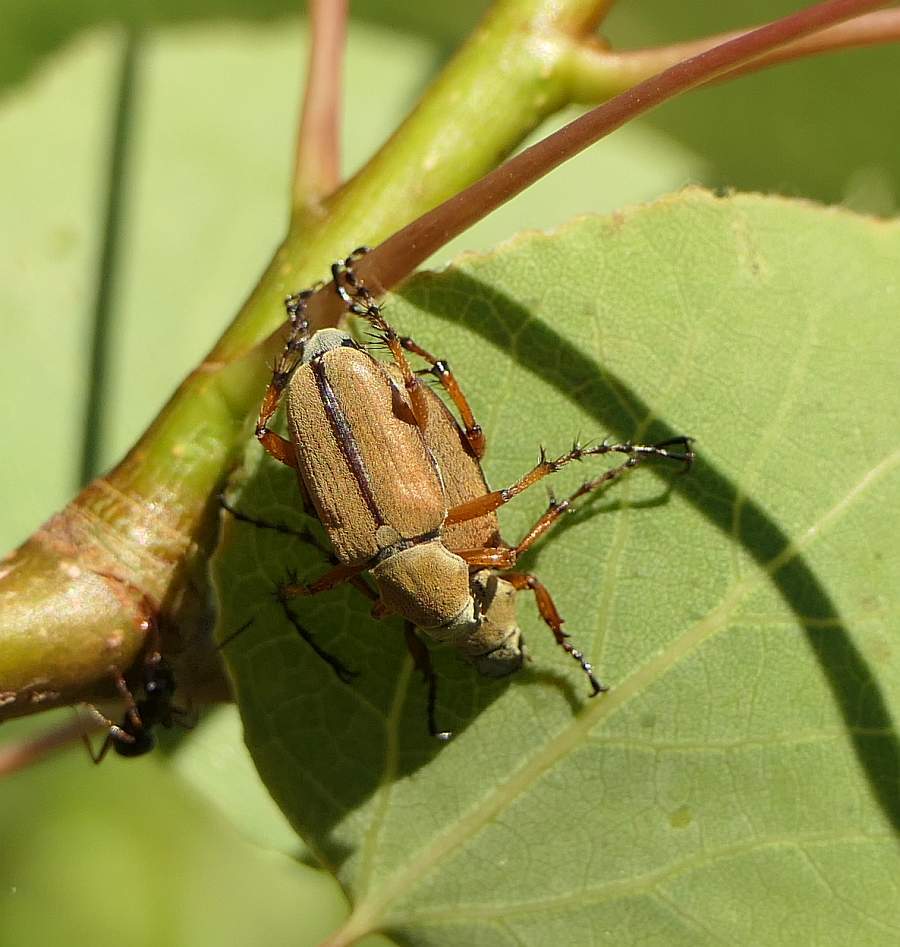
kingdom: Animalia
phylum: Arthropoda
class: Insecta
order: Coleoptera
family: Scarabaeidae
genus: Macrodactylus
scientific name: Macrodactylus subspinosus
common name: American rose chafer
